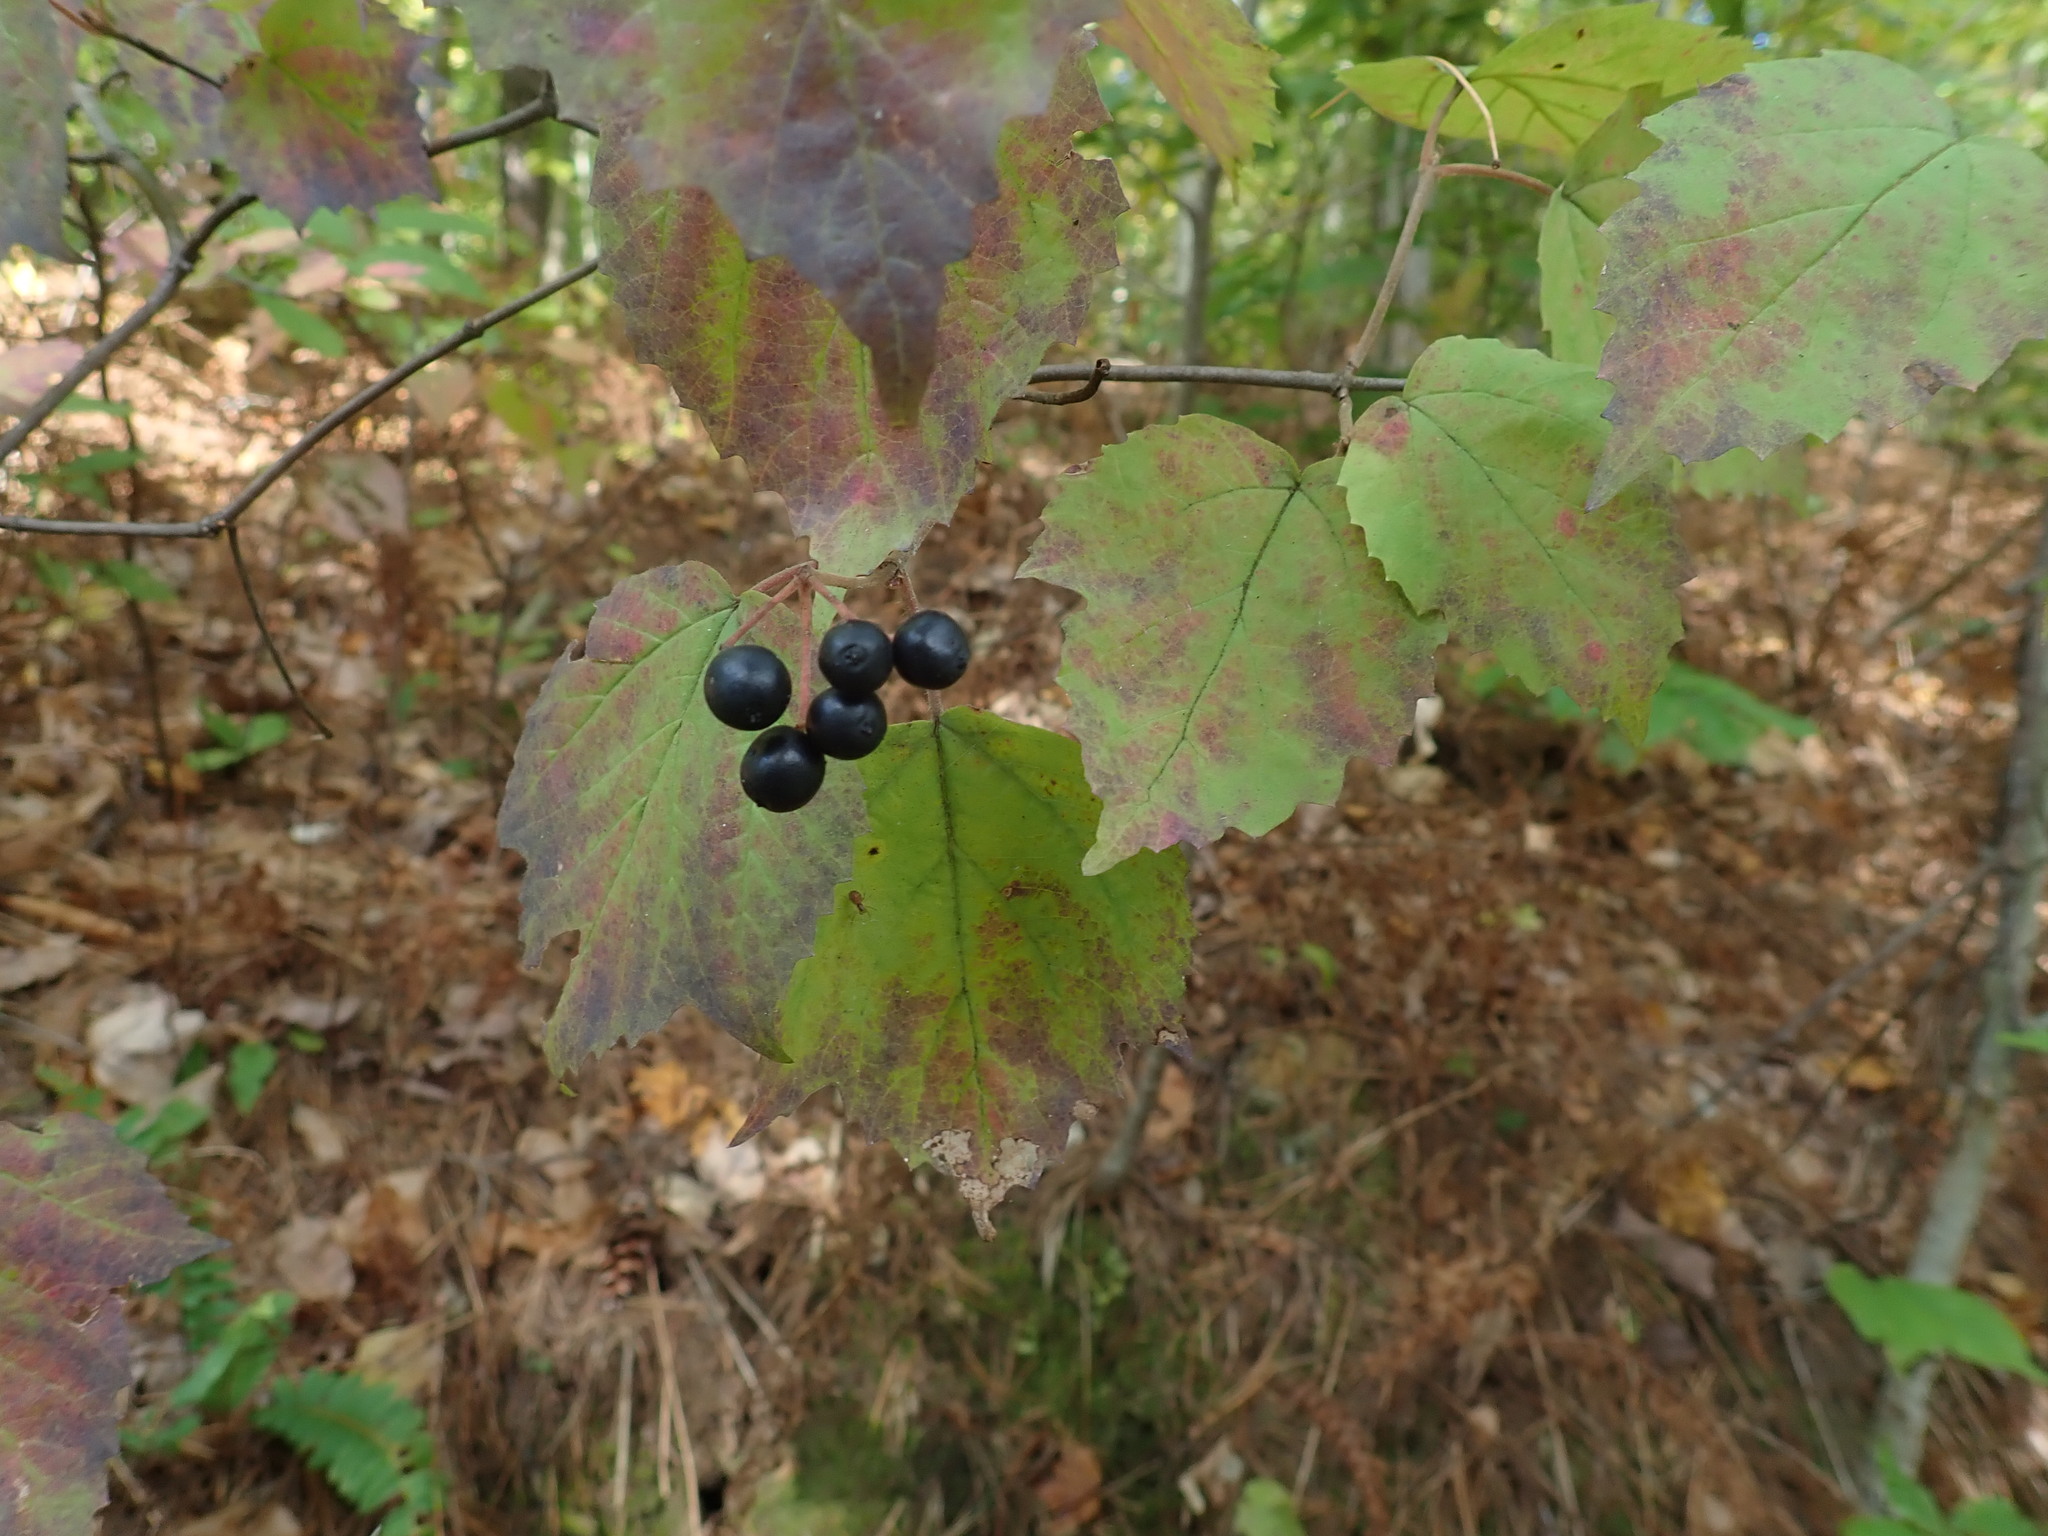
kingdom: Plantae
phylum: Tracheophyta
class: Magnoliopsida
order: Dipsacales
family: Viburnaceae
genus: Viburnum
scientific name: Viburnum acerifolium
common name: Dockmackie
